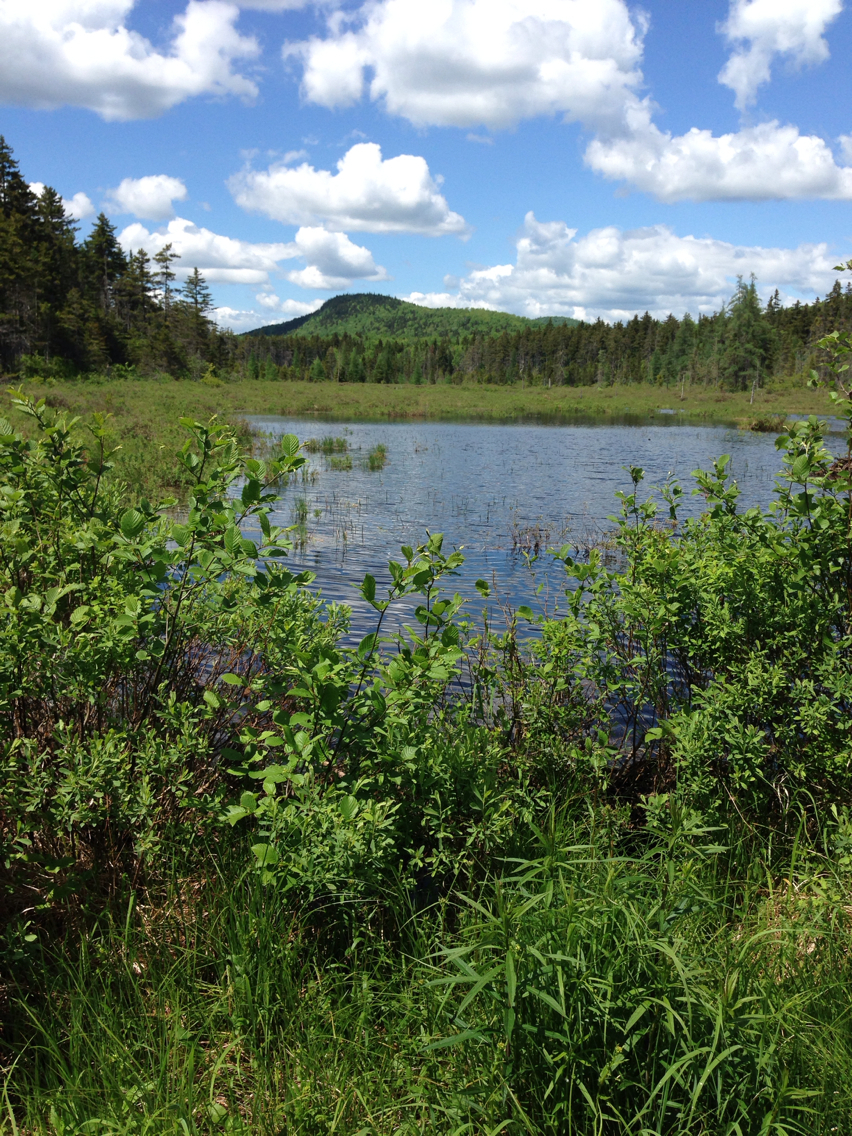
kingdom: Plantae
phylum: Tracheophyta
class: Magnoliopsida
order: Fagales
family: Myricaceae
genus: Myrica
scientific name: Myrica gale
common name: Sweet gale
